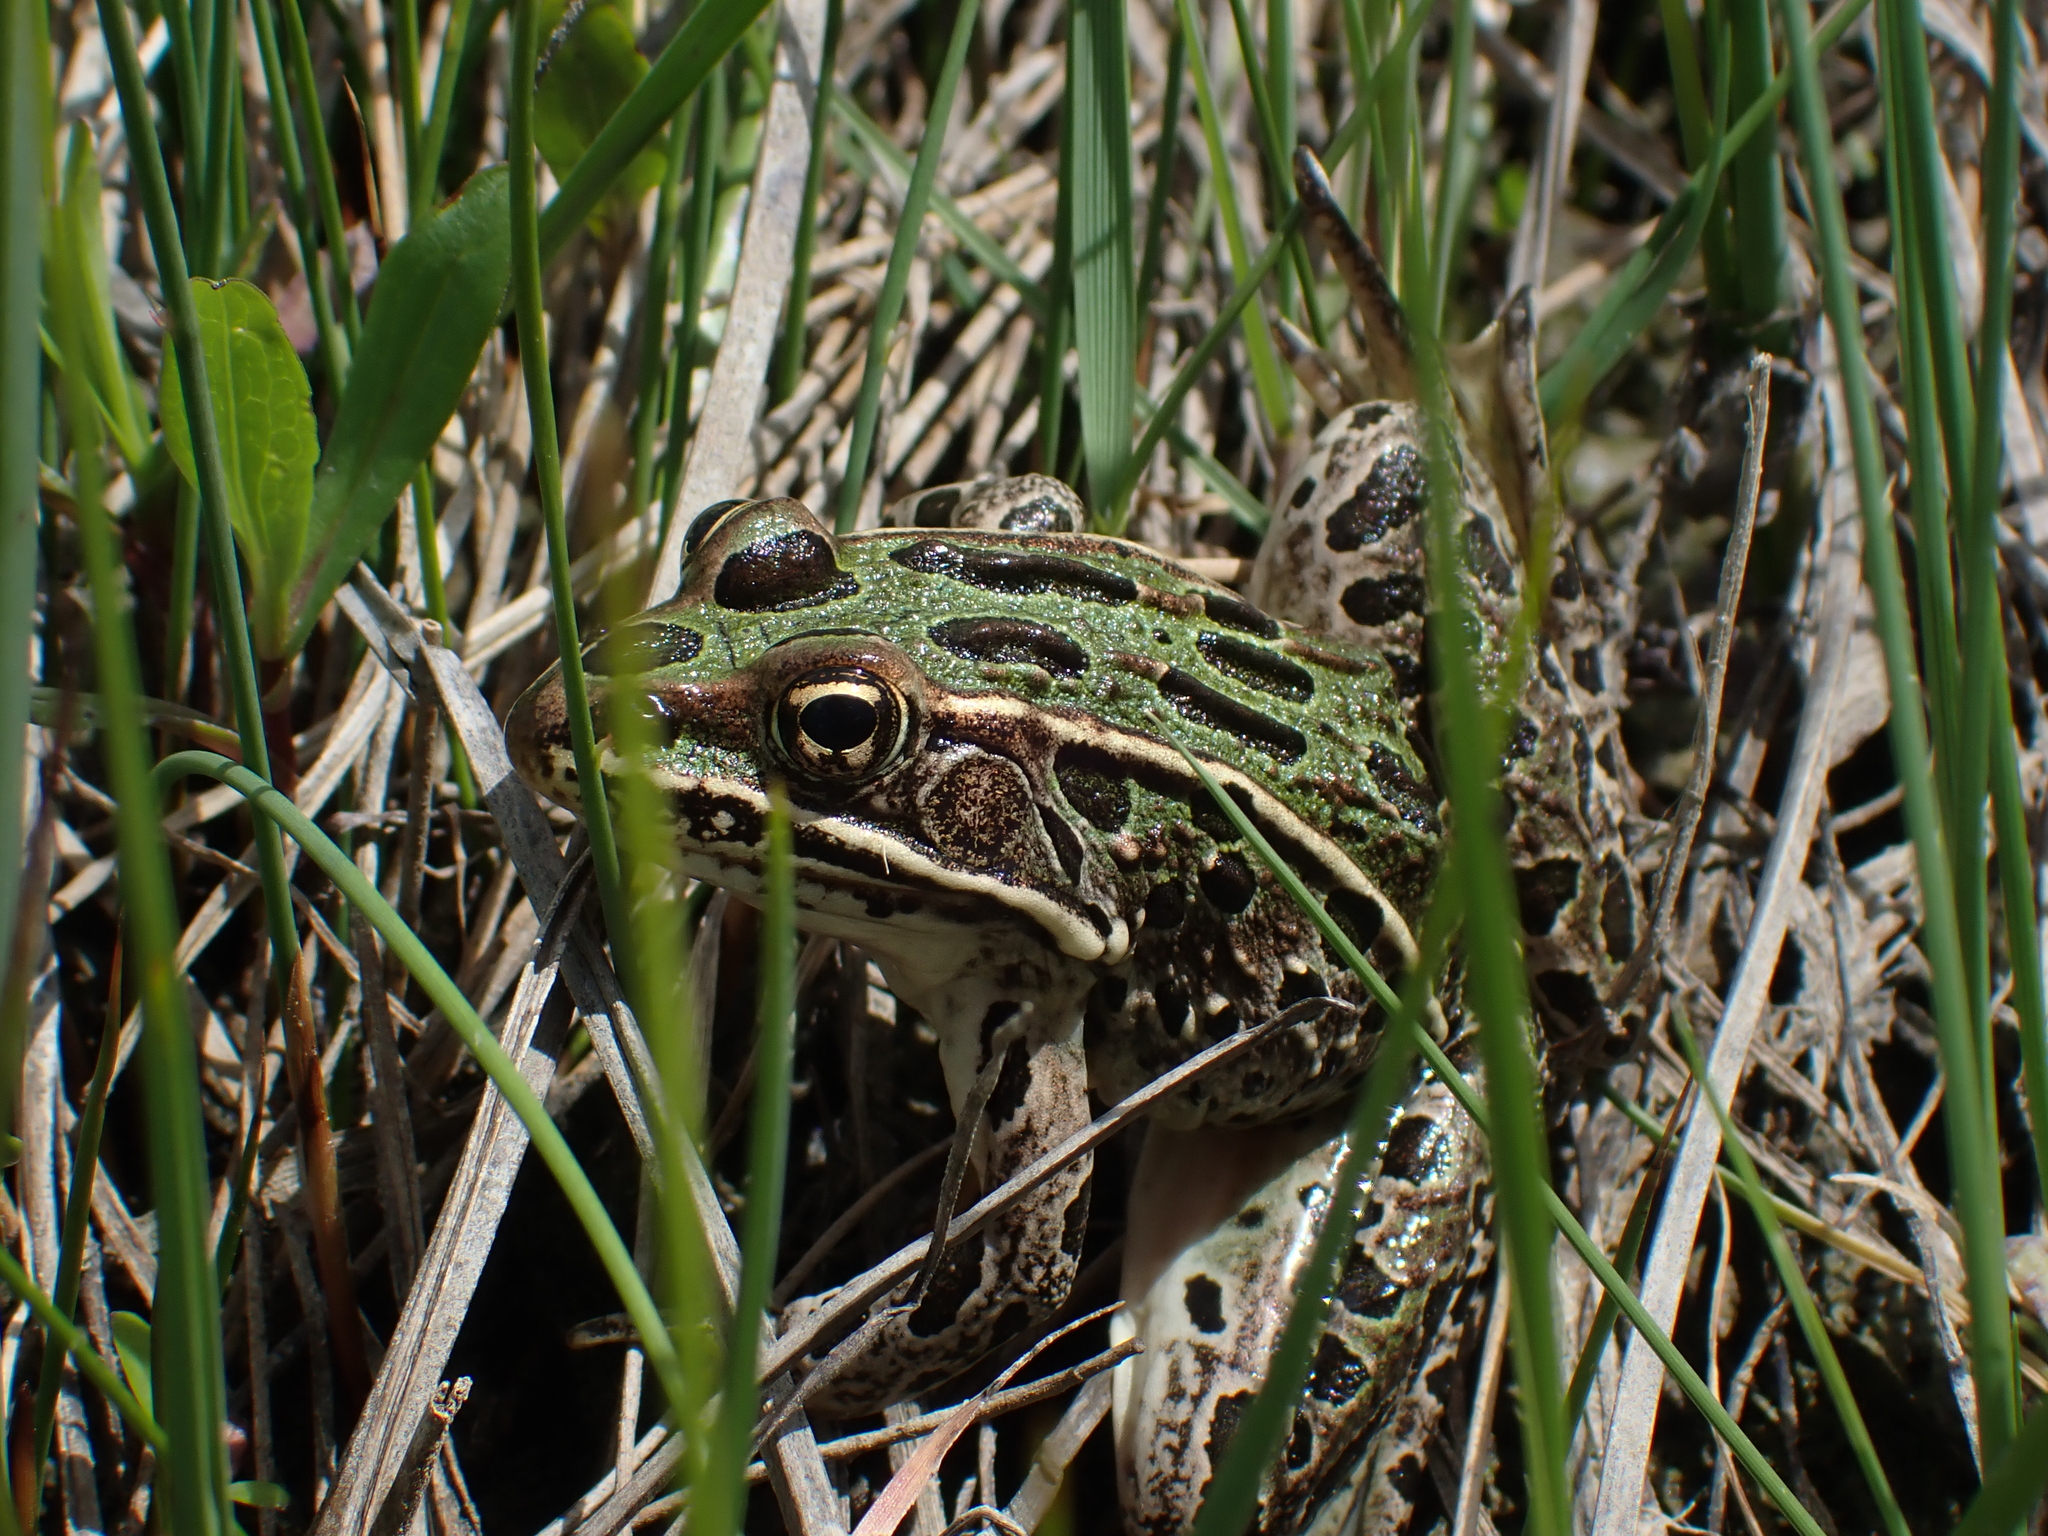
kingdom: Animalia
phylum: Chordata
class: Amphibia
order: Anura
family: Ranidae
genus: Lithobates
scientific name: Lithobates pipiens
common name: Northern leopard frog
